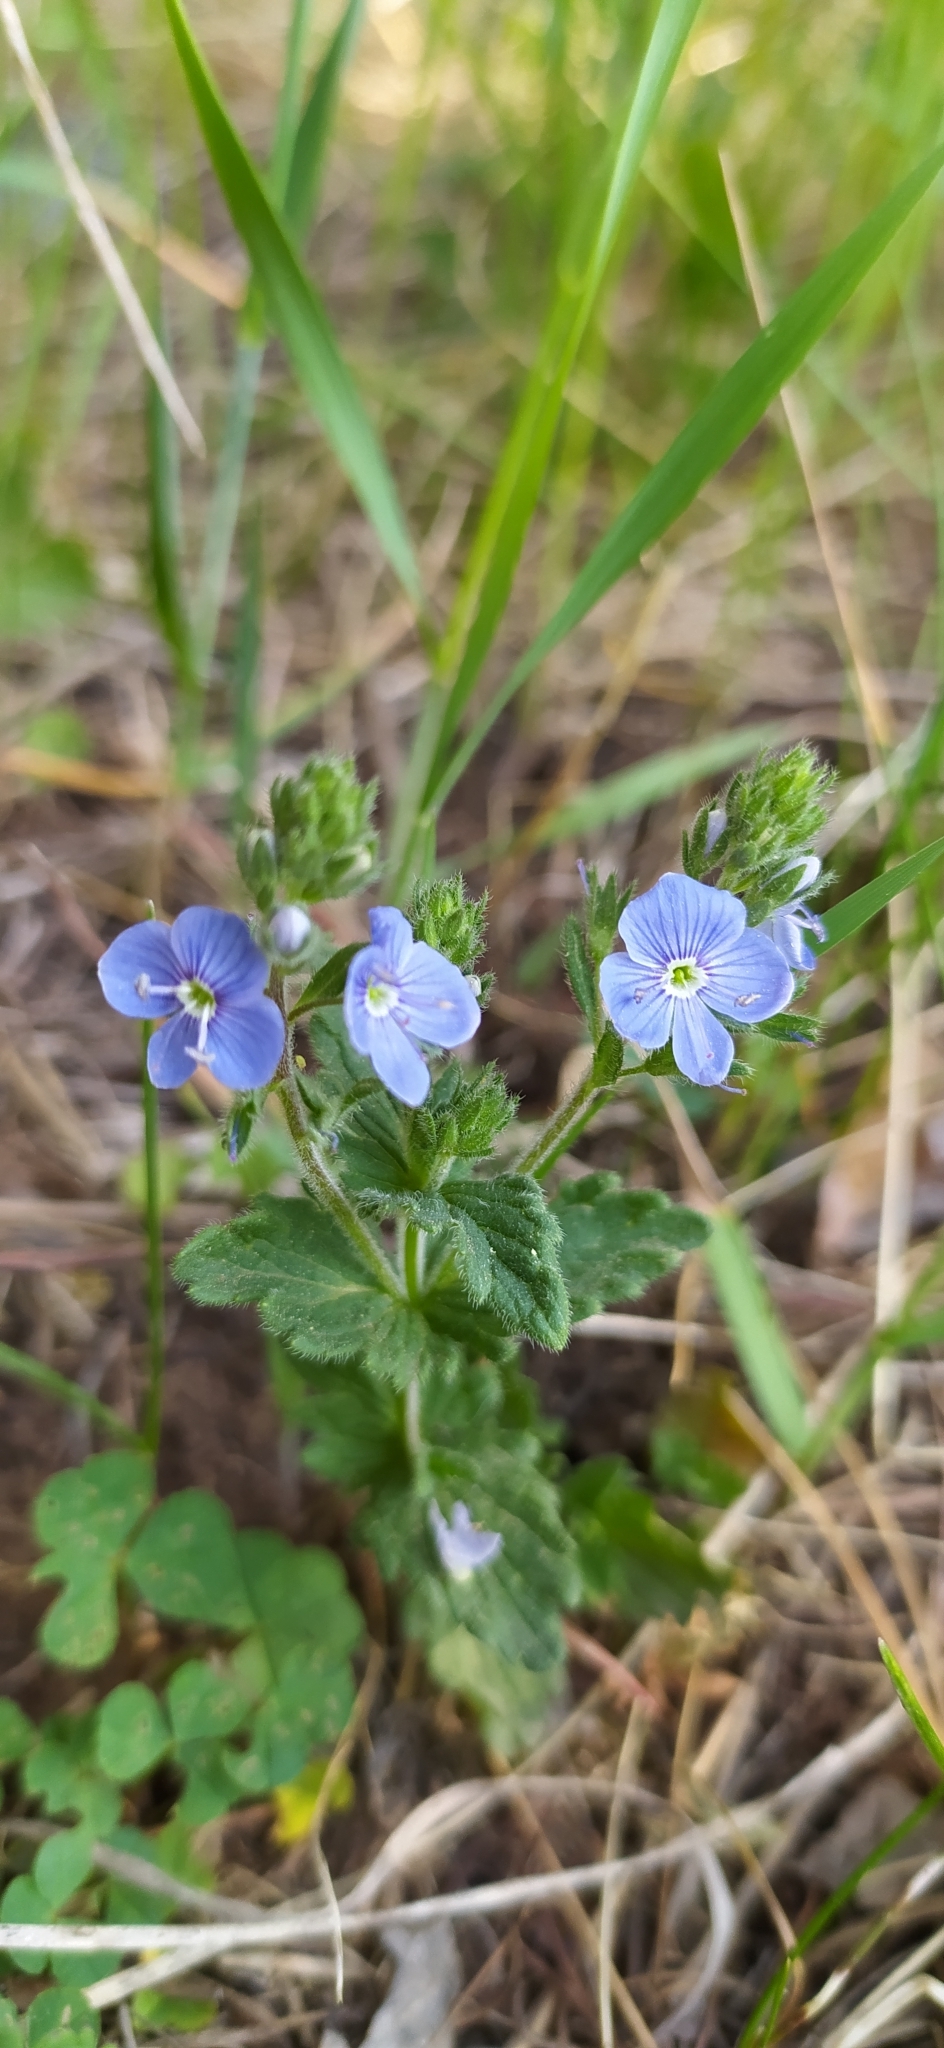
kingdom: Plantae
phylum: Tracheophyta
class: Magnoliopsida
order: Lamiales
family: Plantaginaceae
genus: Veronica
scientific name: Veronica chamaedrys
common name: Germander speedwell
